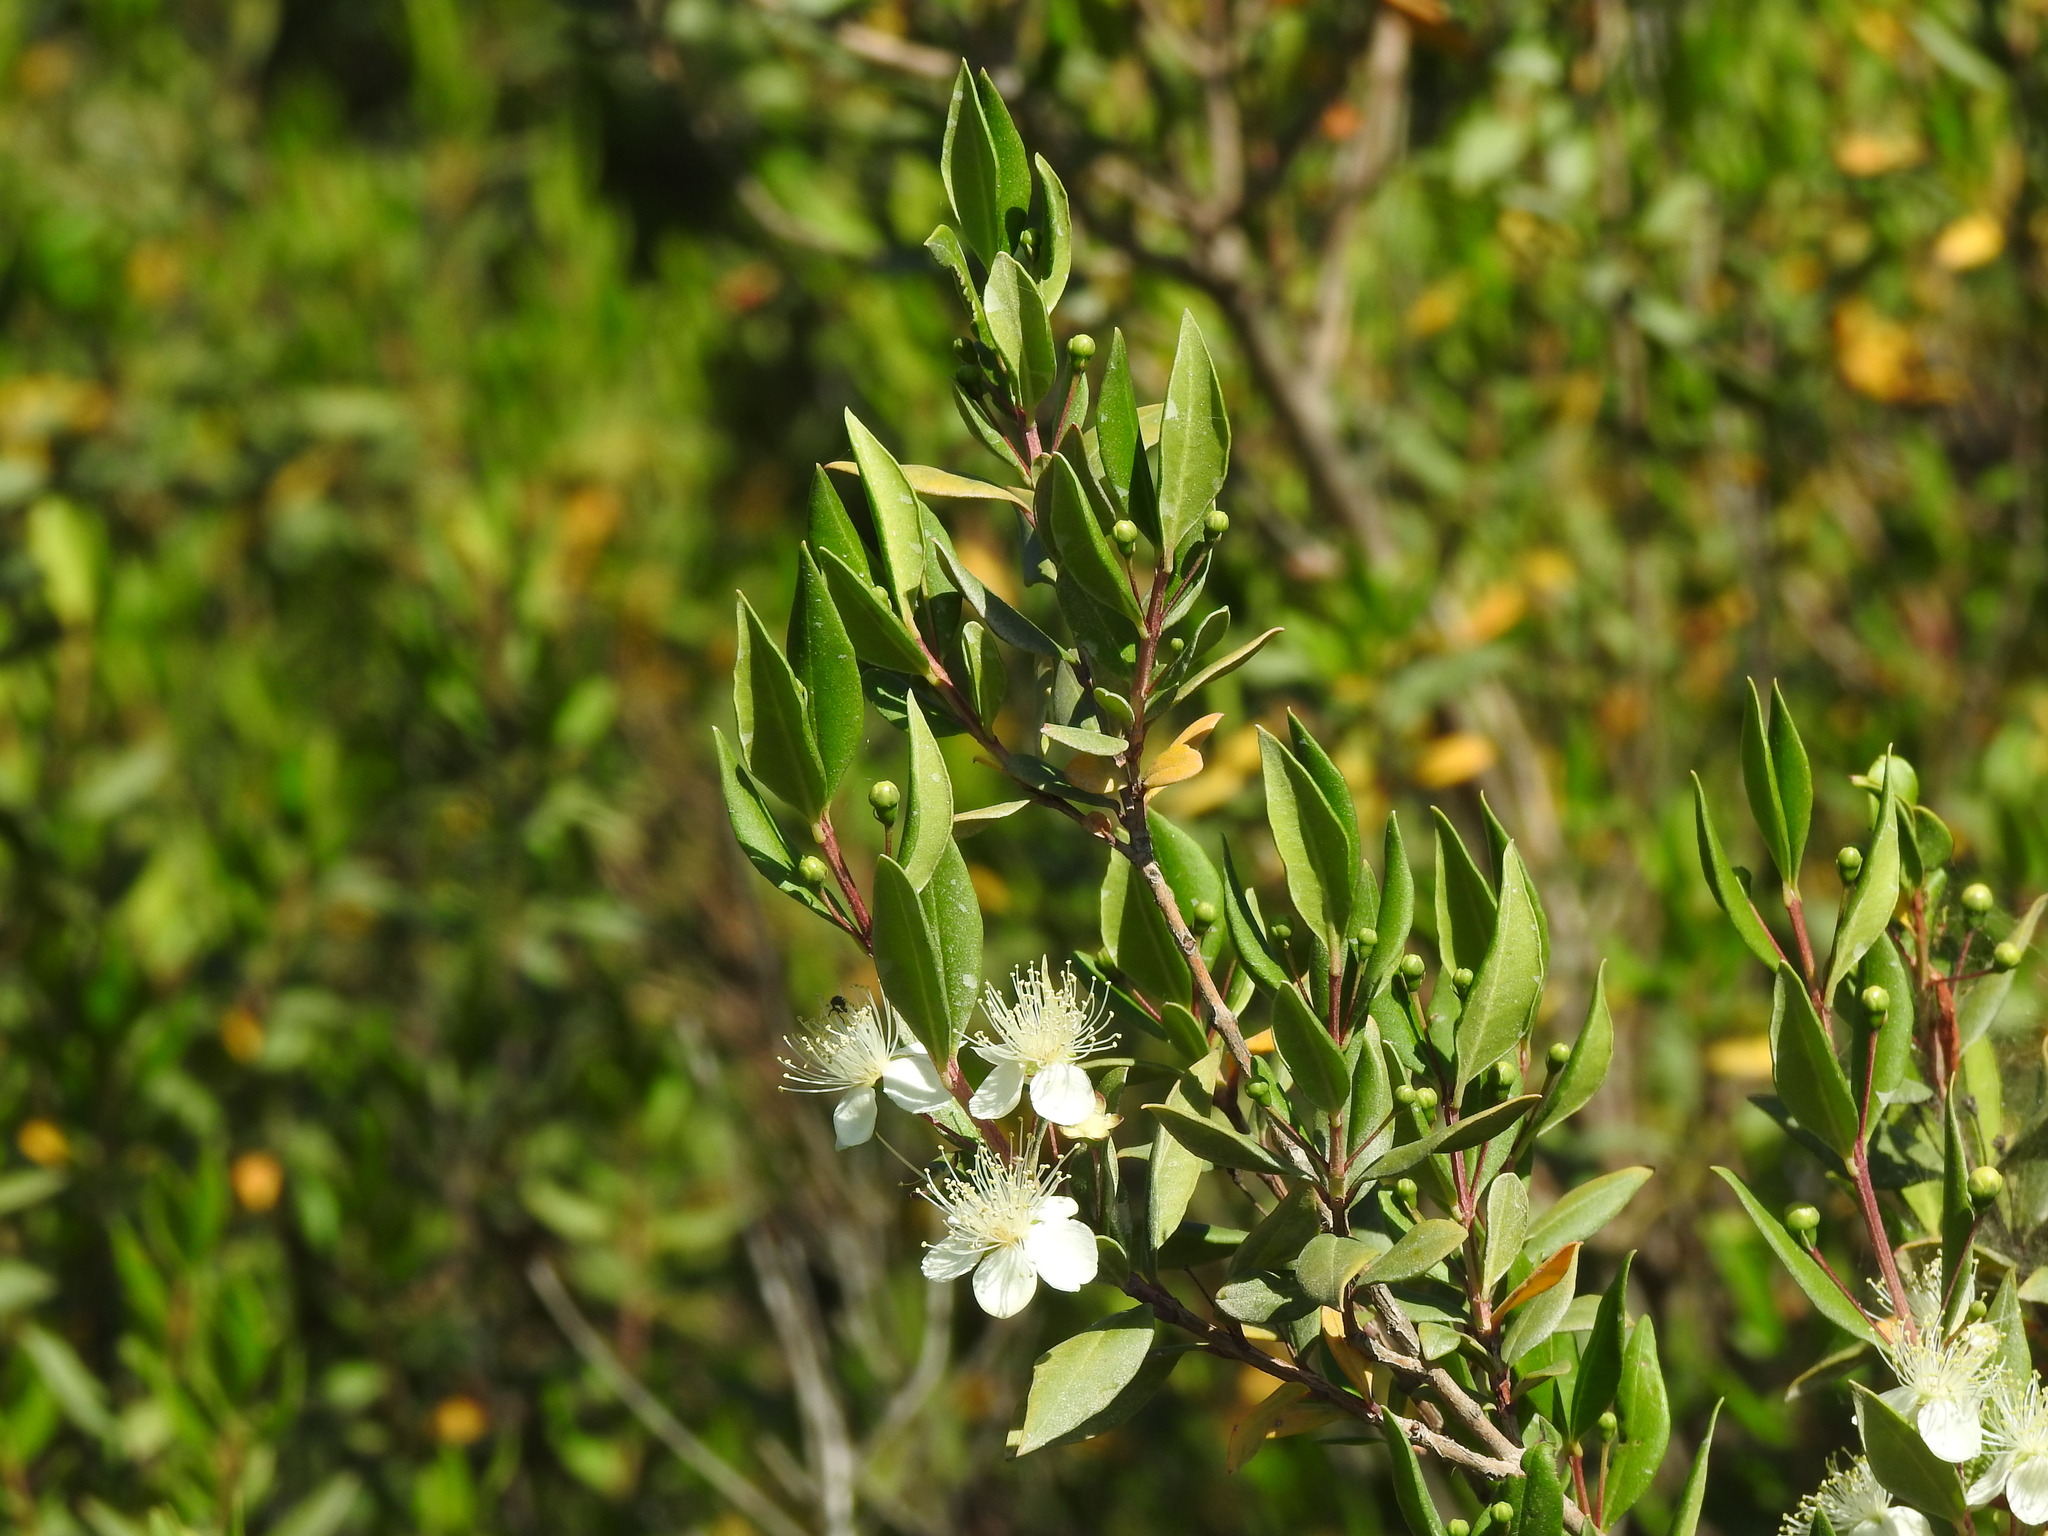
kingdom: Plantae
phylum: Tracheophyta
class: Magnoliopsida
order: Myrtales
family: Myrtaceae
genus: Myrtus
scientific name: Myrtus communis
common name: Myrtle
